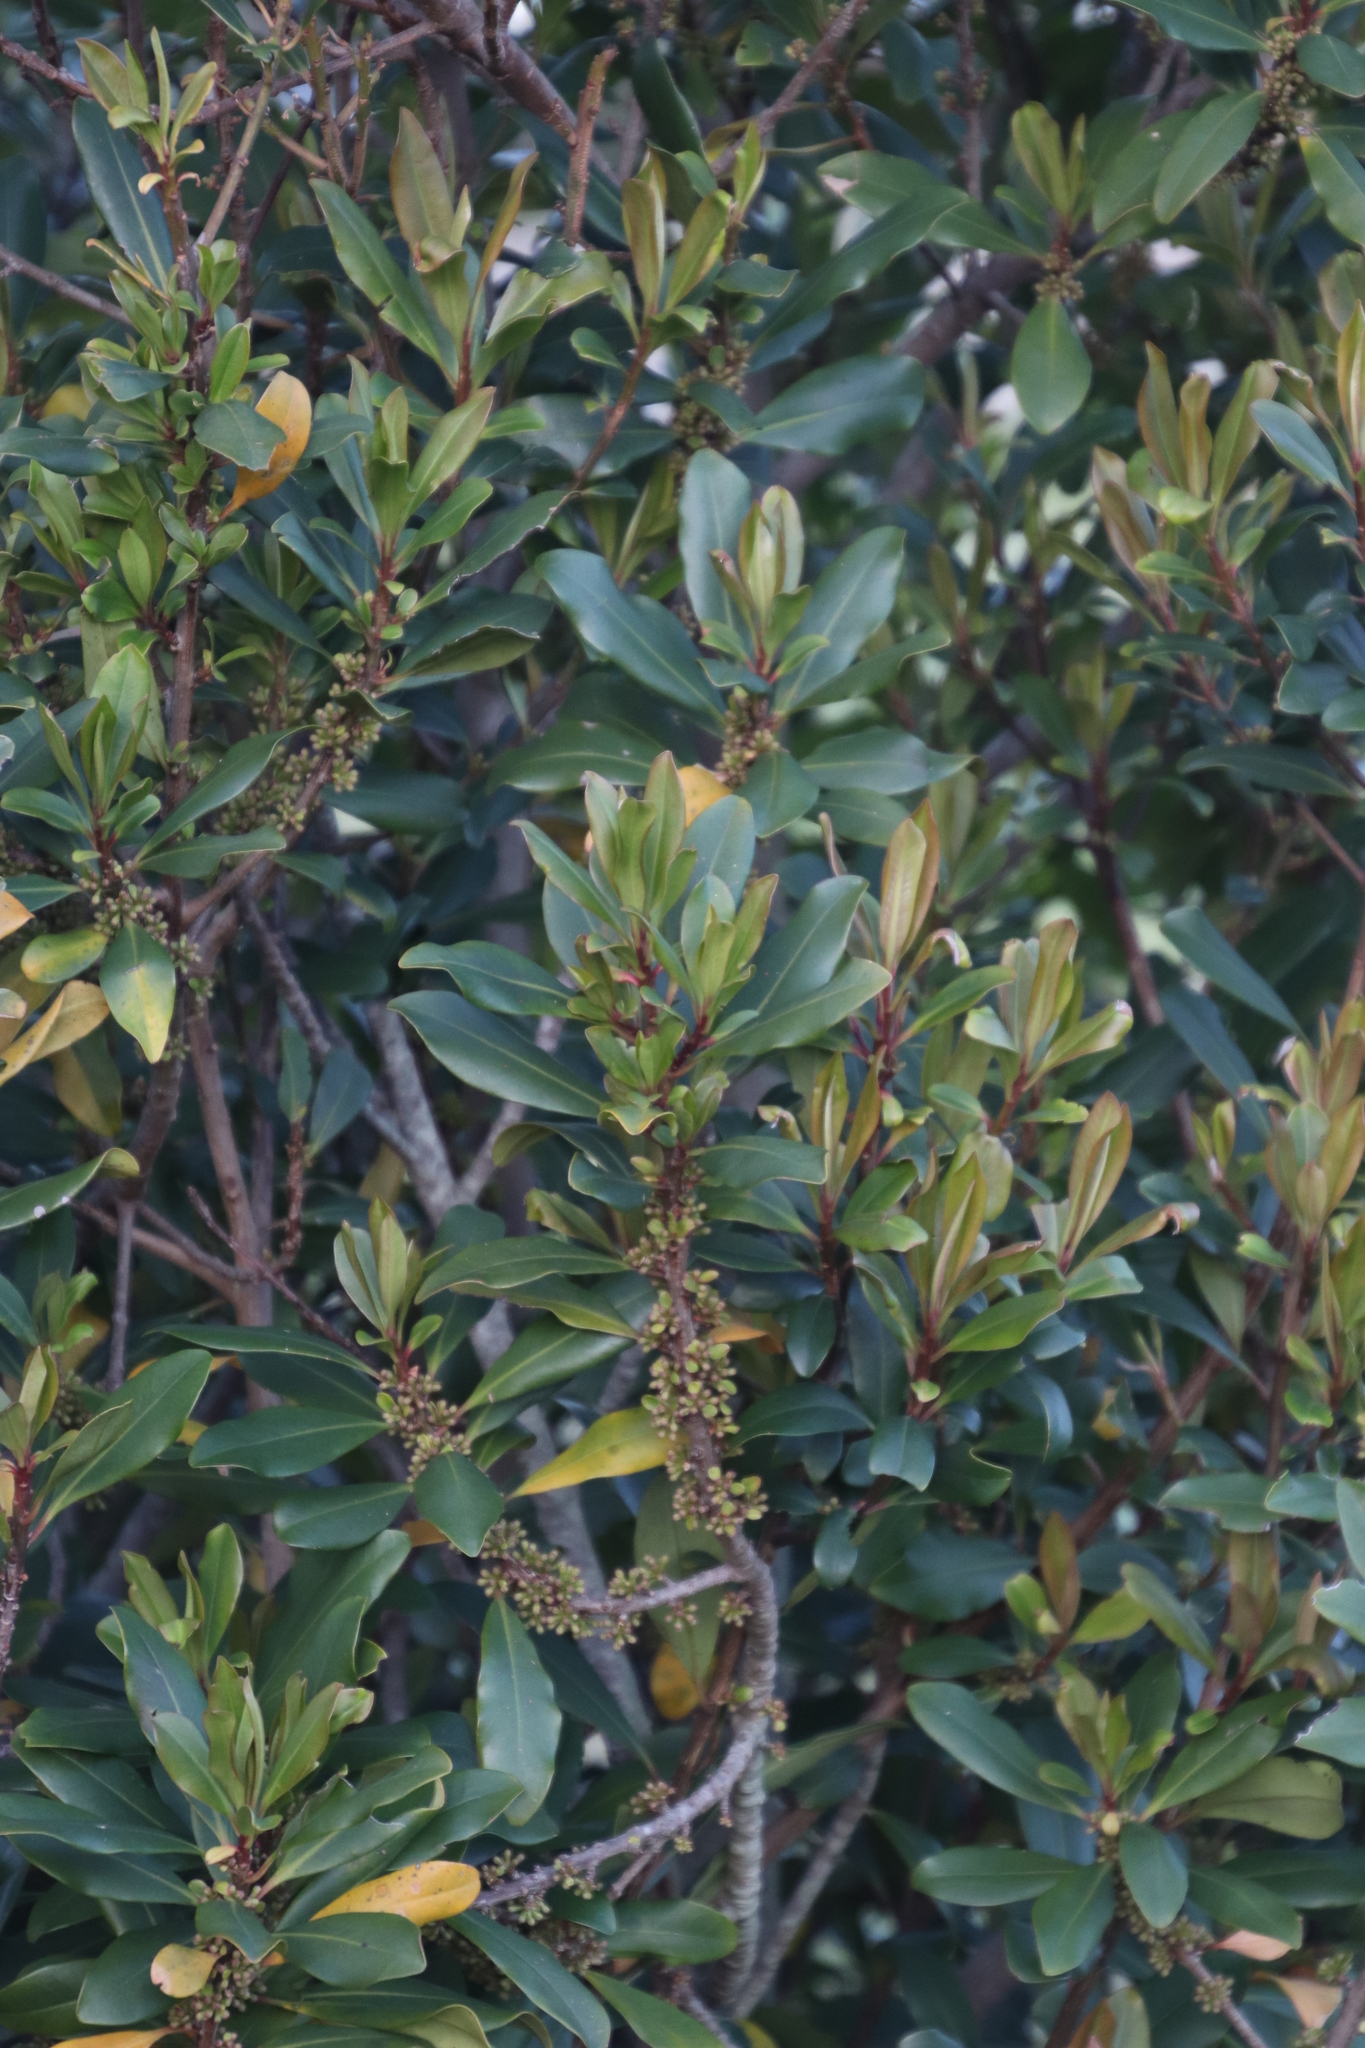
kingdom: Plantae
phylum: Tracheophyta
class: Magnoliopsida
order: Ericales
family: Primulaceae
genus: Myrsine
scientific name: Myrsine melanophloeos
